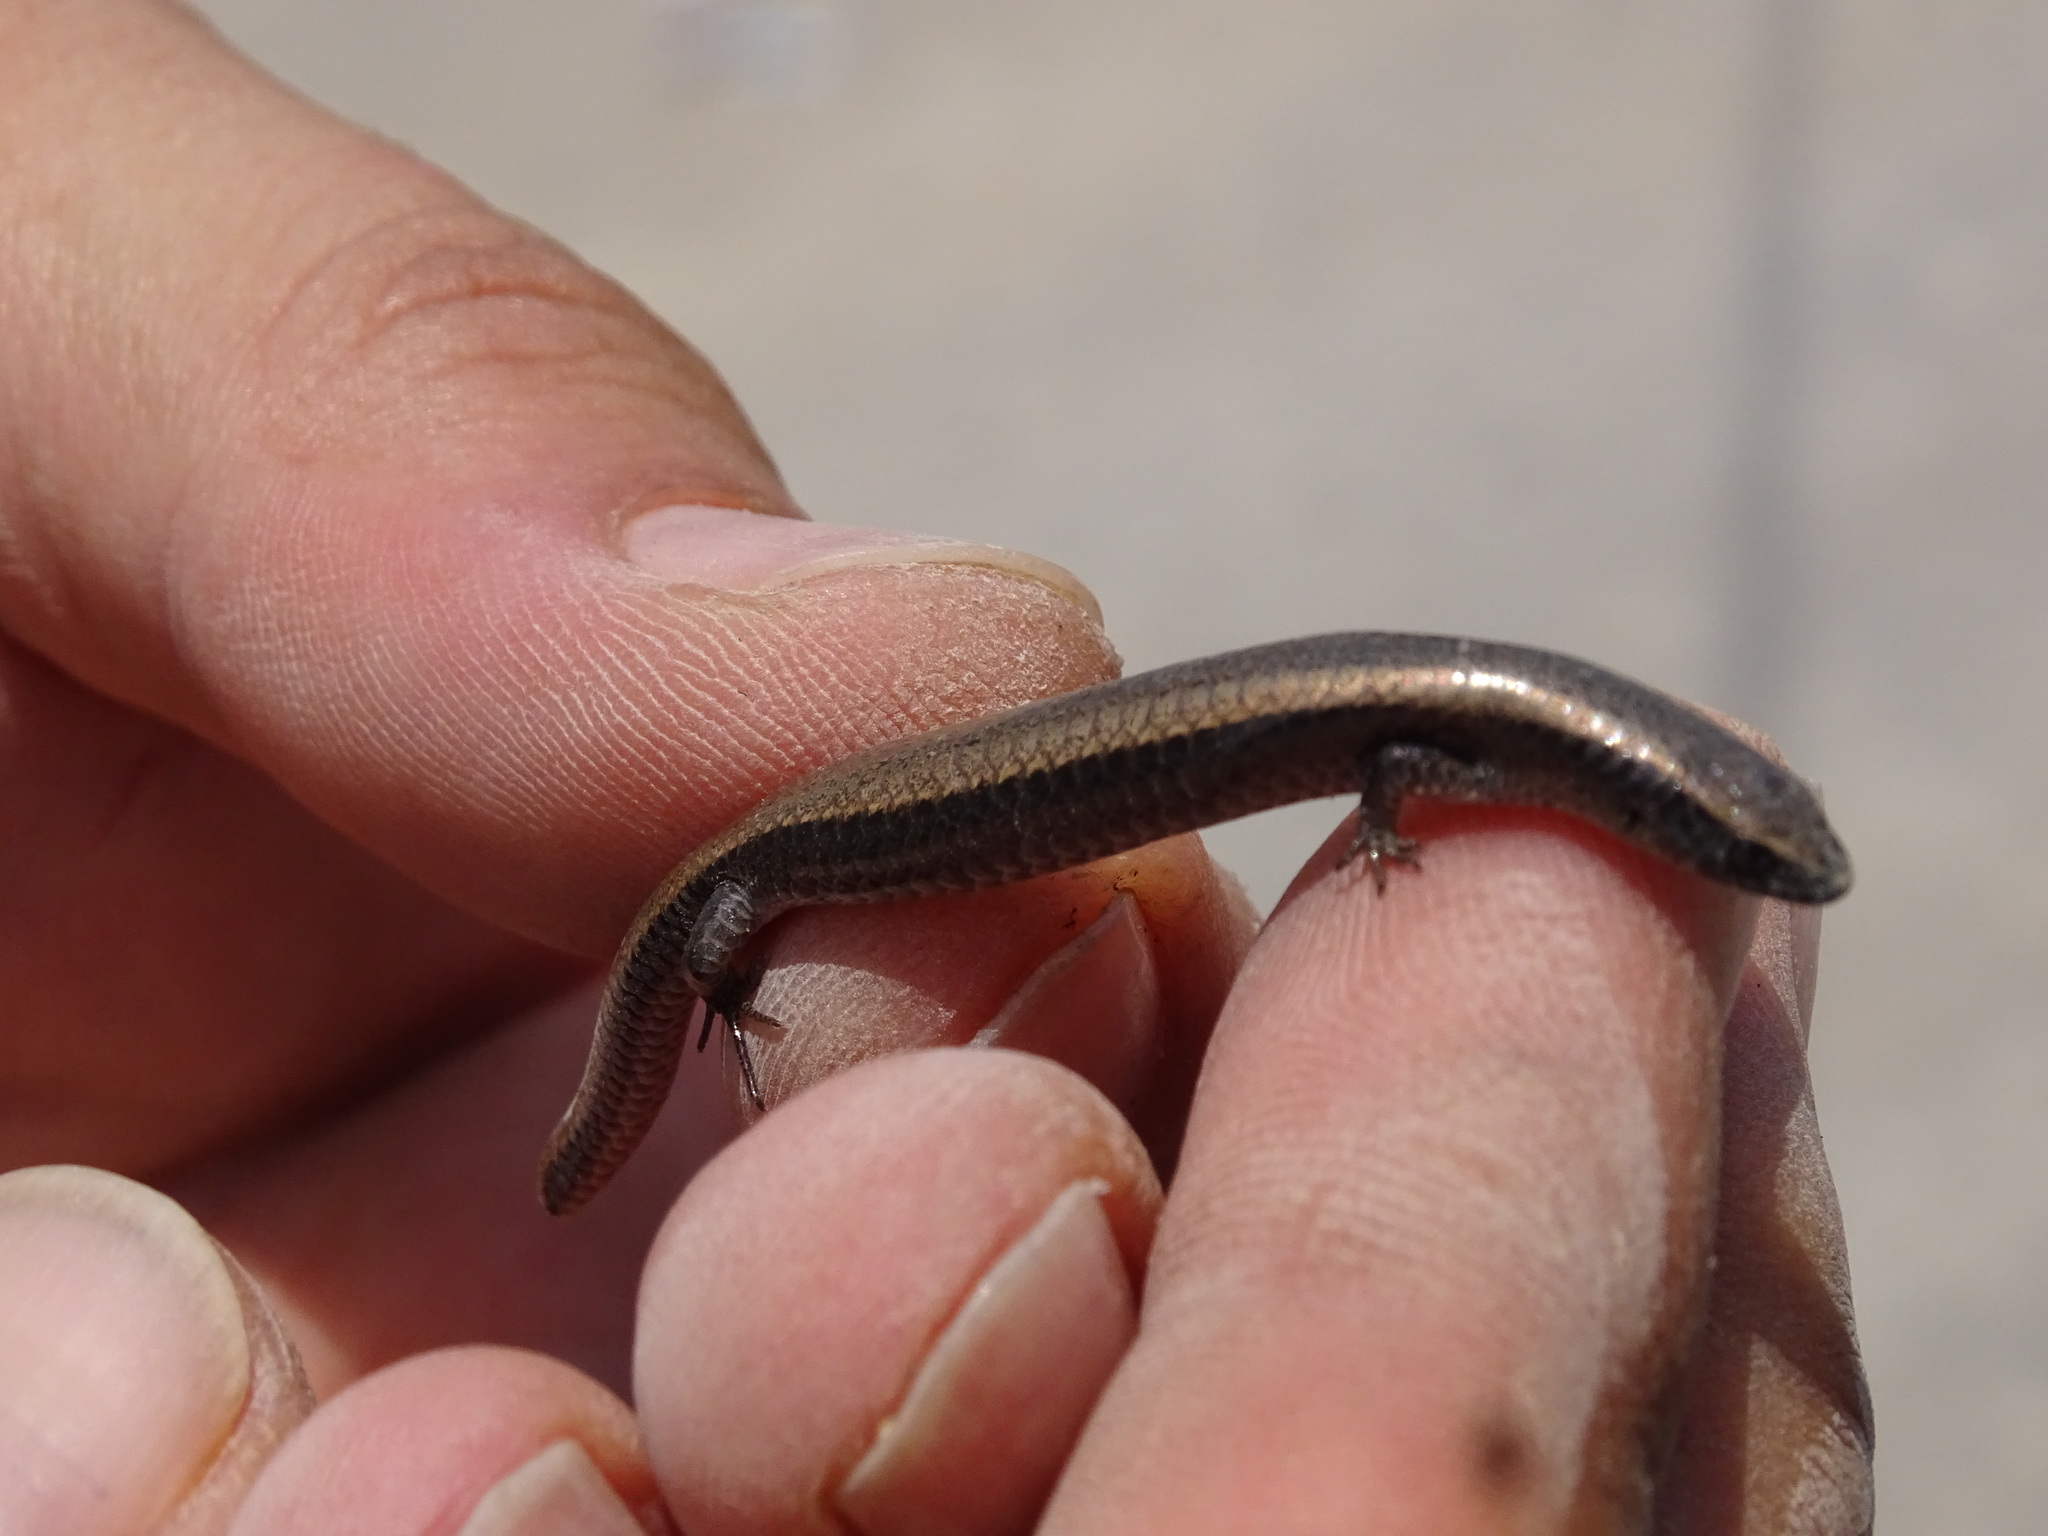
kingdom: Animalia
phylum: Chordata
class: Squamata
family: Gymnophthalmidae
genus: Gymnophthalmus
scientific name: Gymnophthalmus speciosus
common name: Golden spectacled tegu
